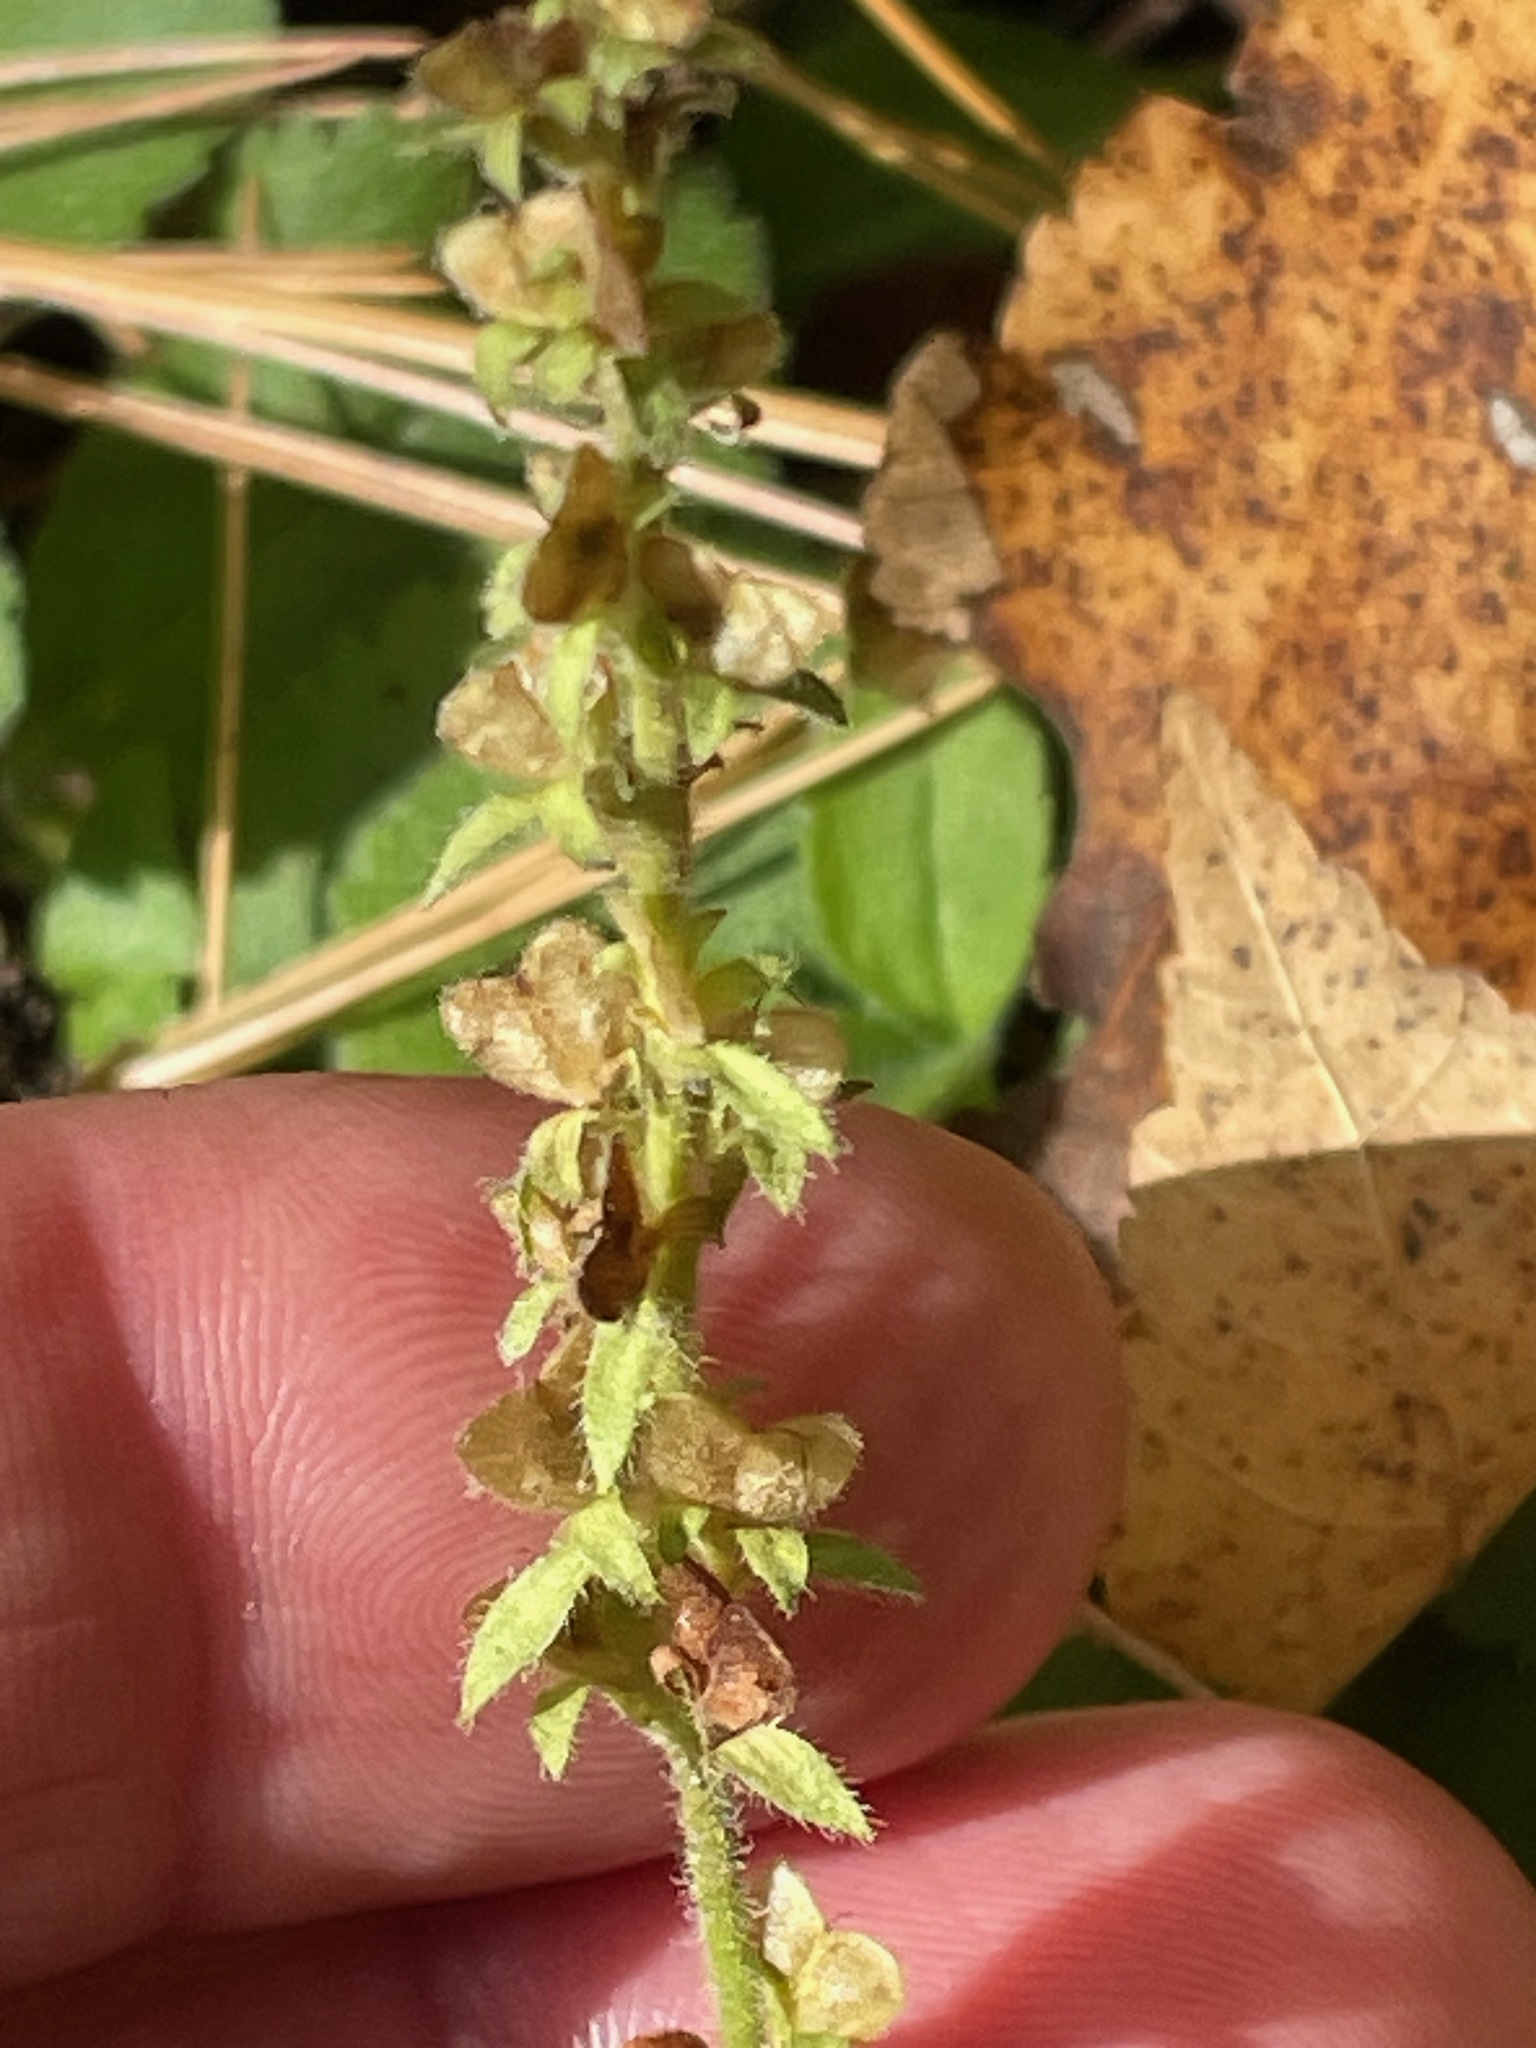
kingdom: Plantae
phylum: Tracheophyta
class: Magnoliopsida
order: Lamiales
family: Plantaginaceae
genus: Veronica
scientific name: Veronica officinalis
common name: Common speedwell
